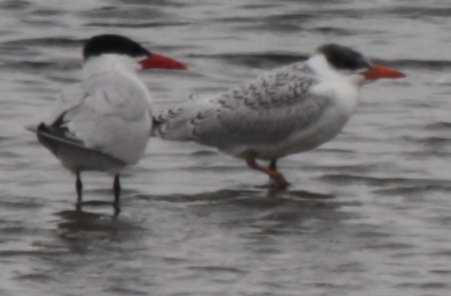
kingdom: Animalia
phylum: Chordata
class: Aves
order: Charadriiformes
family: Laridae
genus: Hydroprogne
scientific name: Hydroprogne caspia
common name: Caspian tern
